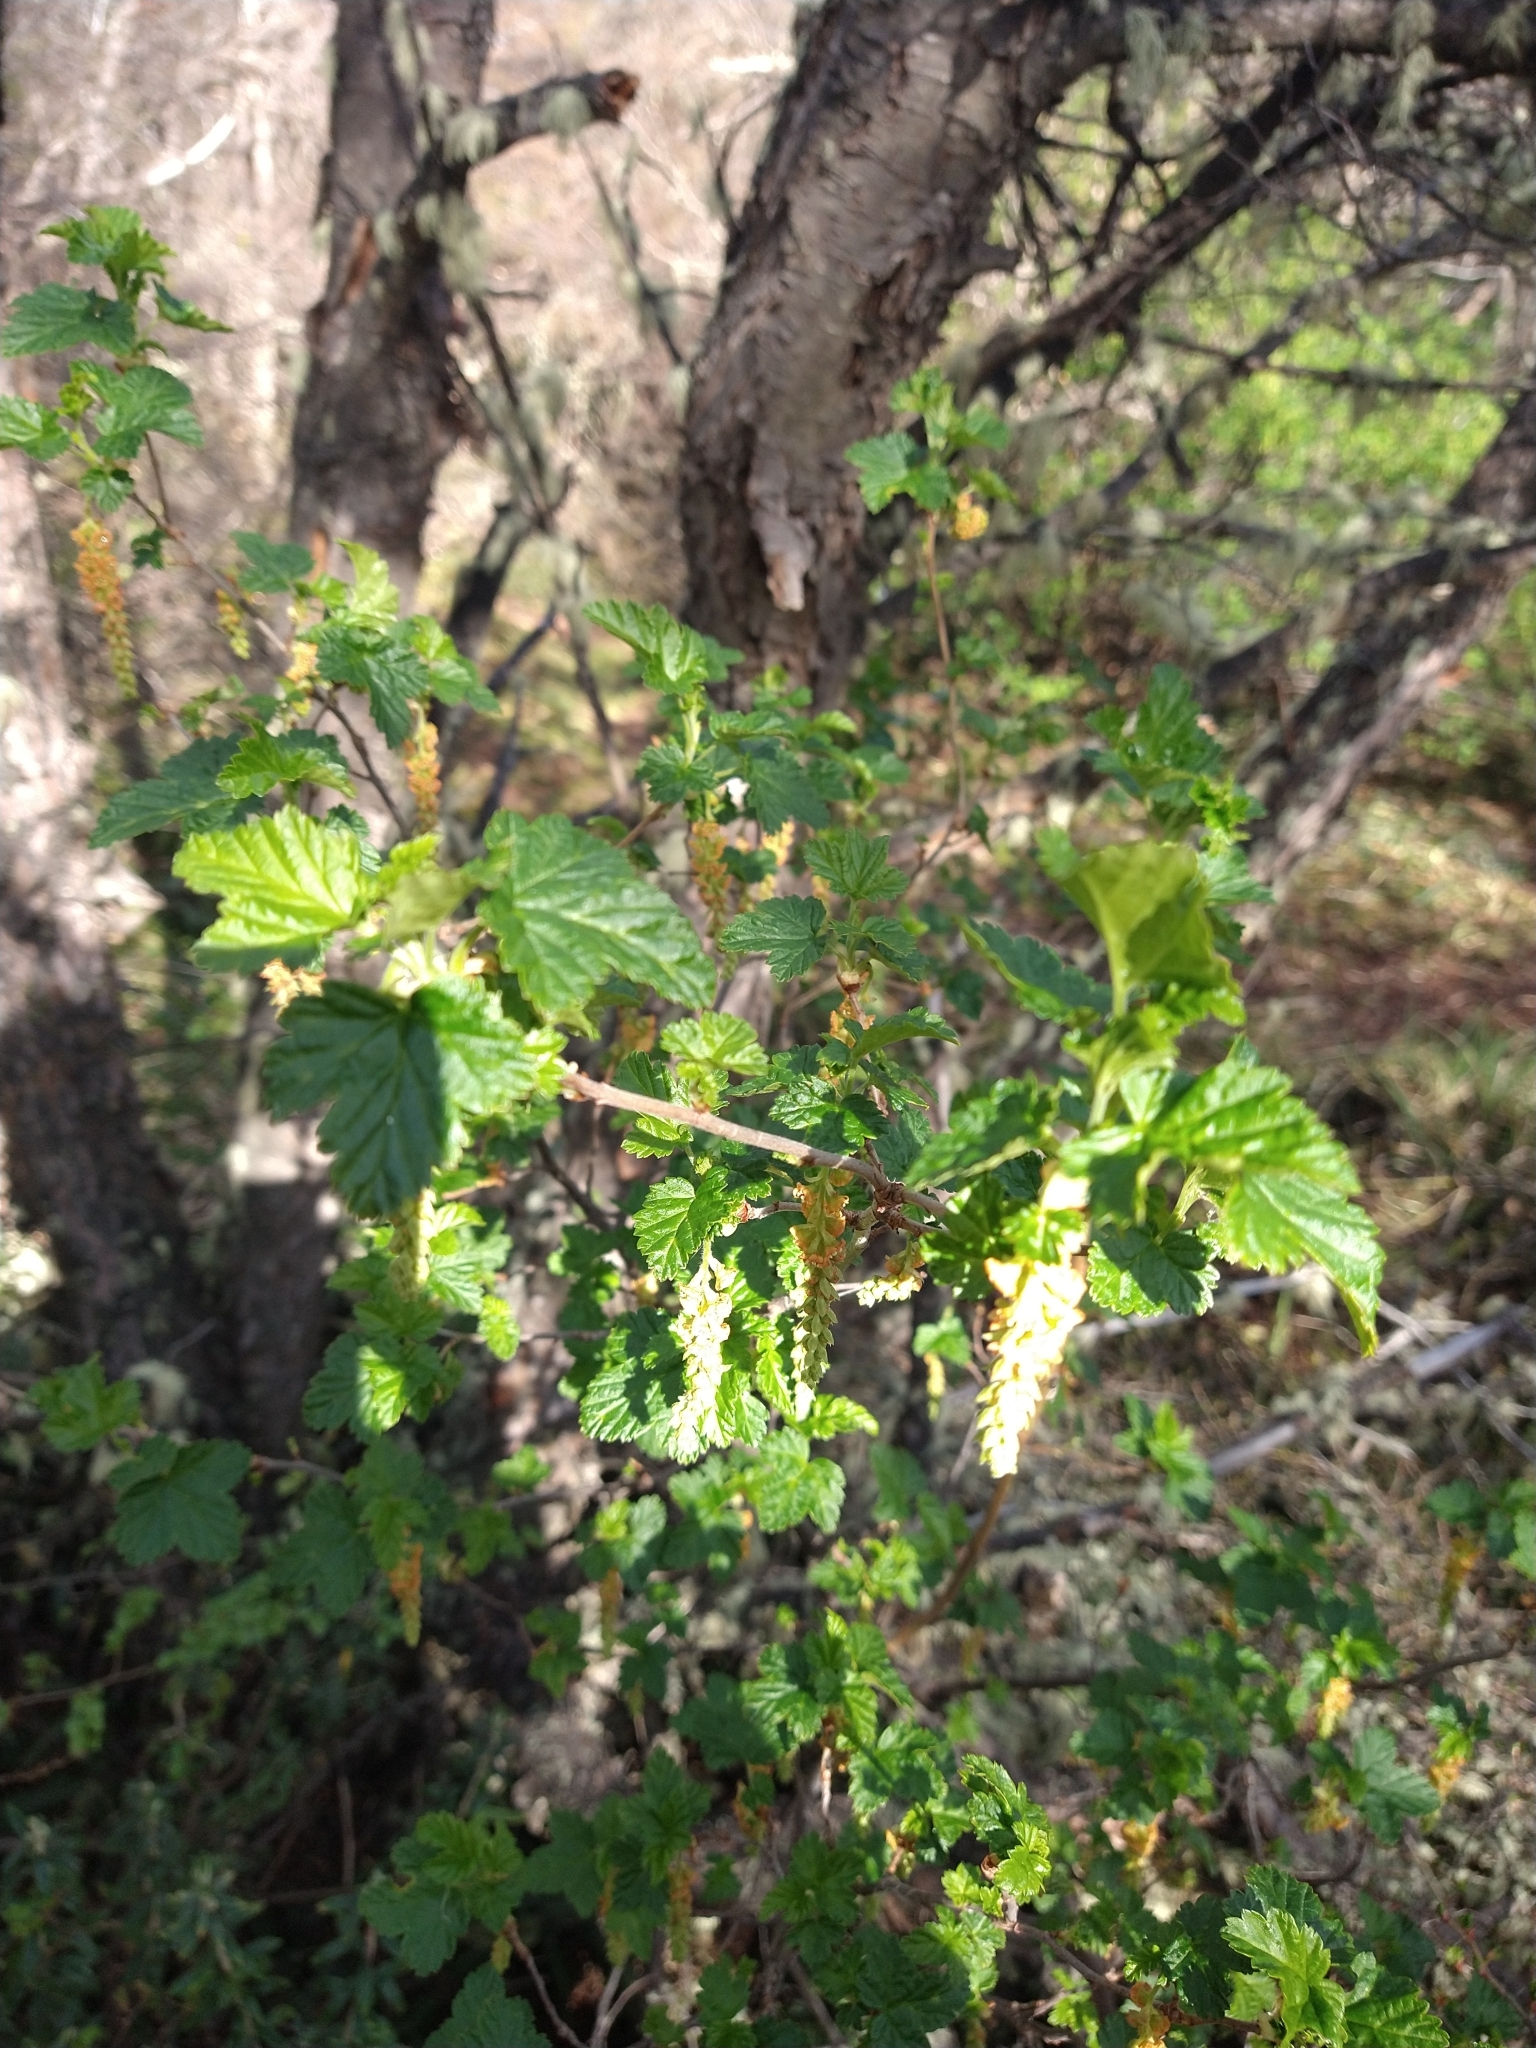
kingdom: Plantae
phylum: Tracheophyta
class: Magnoliopsida
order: Saxifragales
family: Grossulariaceae
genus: Ribes
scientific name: Ribes magellanicum
